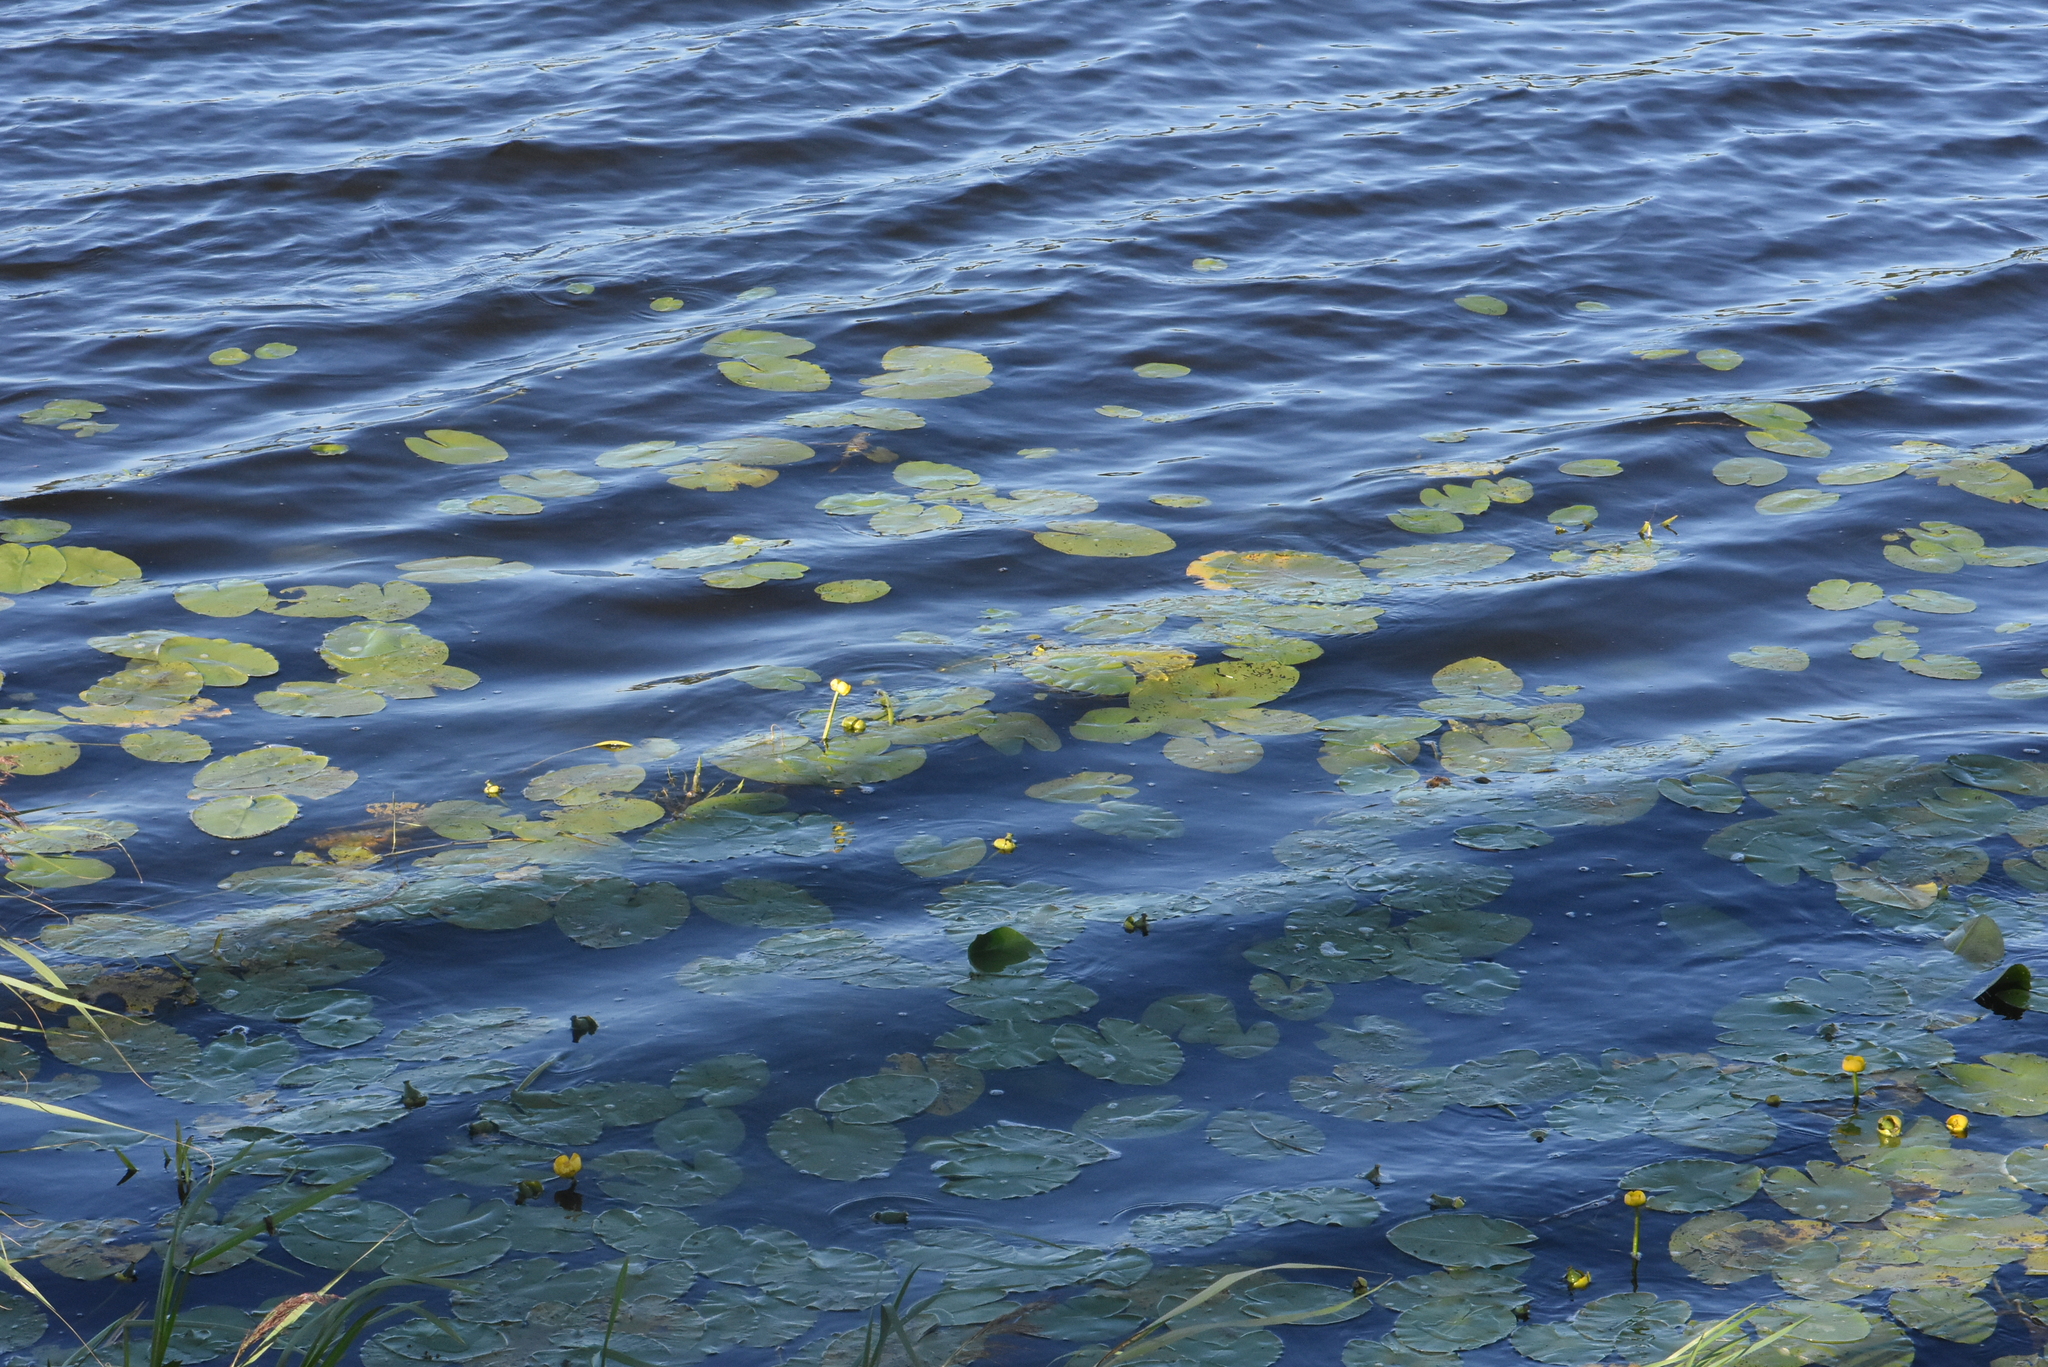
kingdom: Plantae
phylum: Tracheophyta
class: Magnoliopsida
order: Nymphaeales
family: Nymphaeaceae
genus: Nuphar
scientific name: Nuphar lutea
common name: Yellow water-lily
